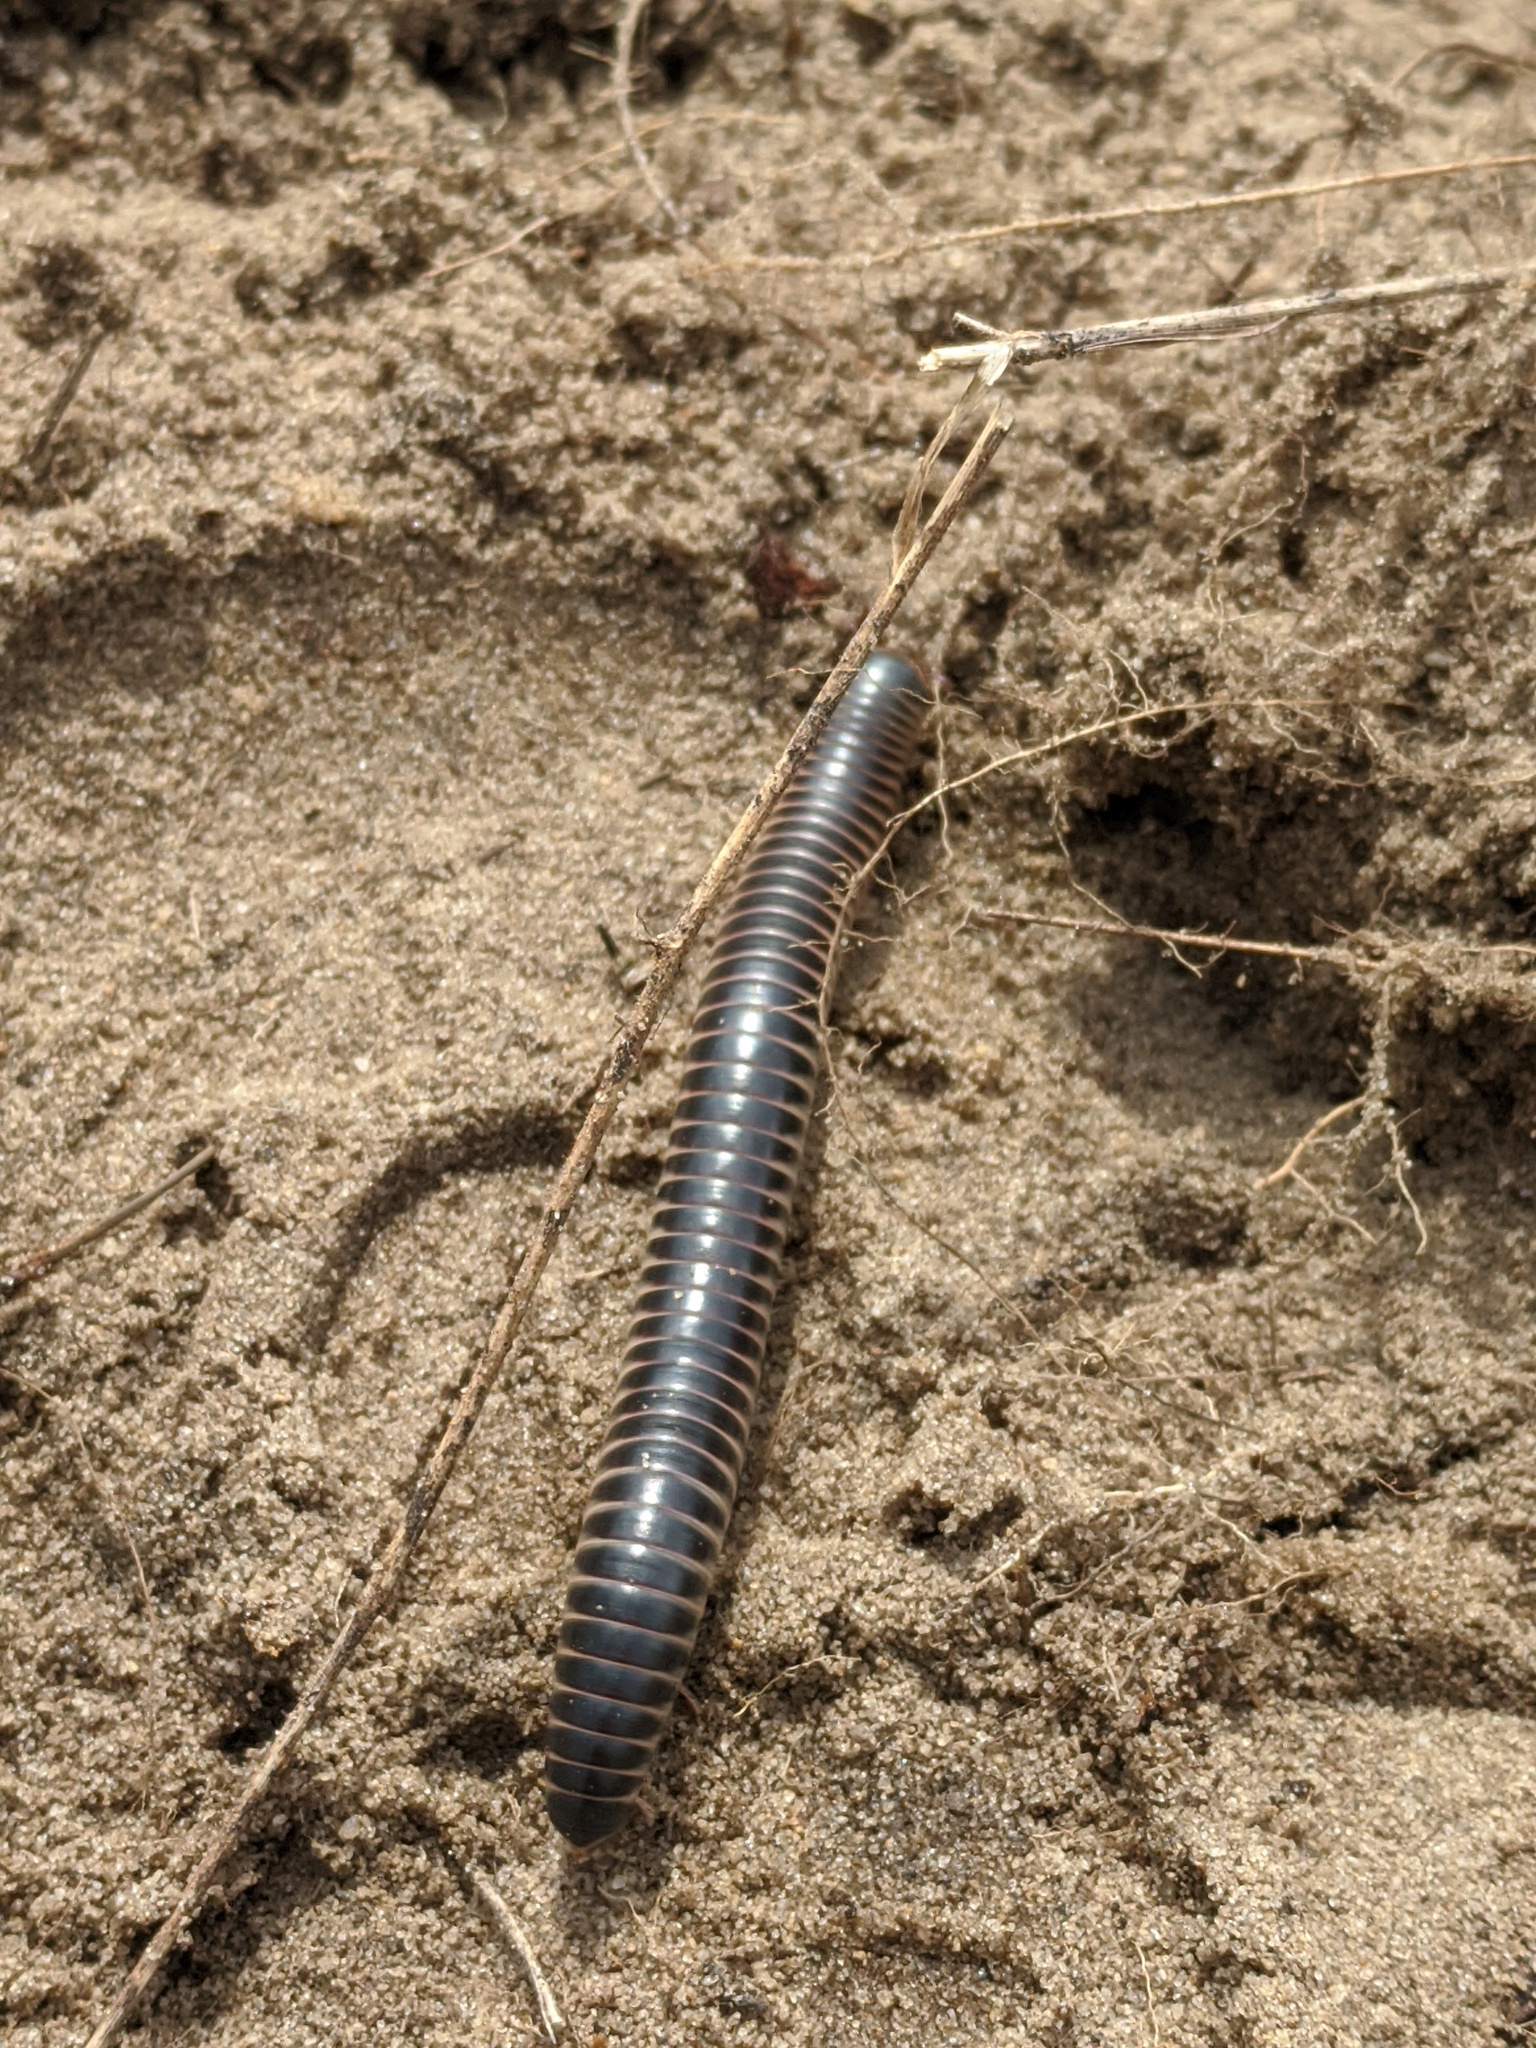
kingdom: Animalia
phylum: Arthropoda
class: Diplopoda
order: Spirobolida
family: Spirobolidae
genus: Chicobolus
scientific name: Chicobolus spinigerus
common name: Florida ivory millipede
